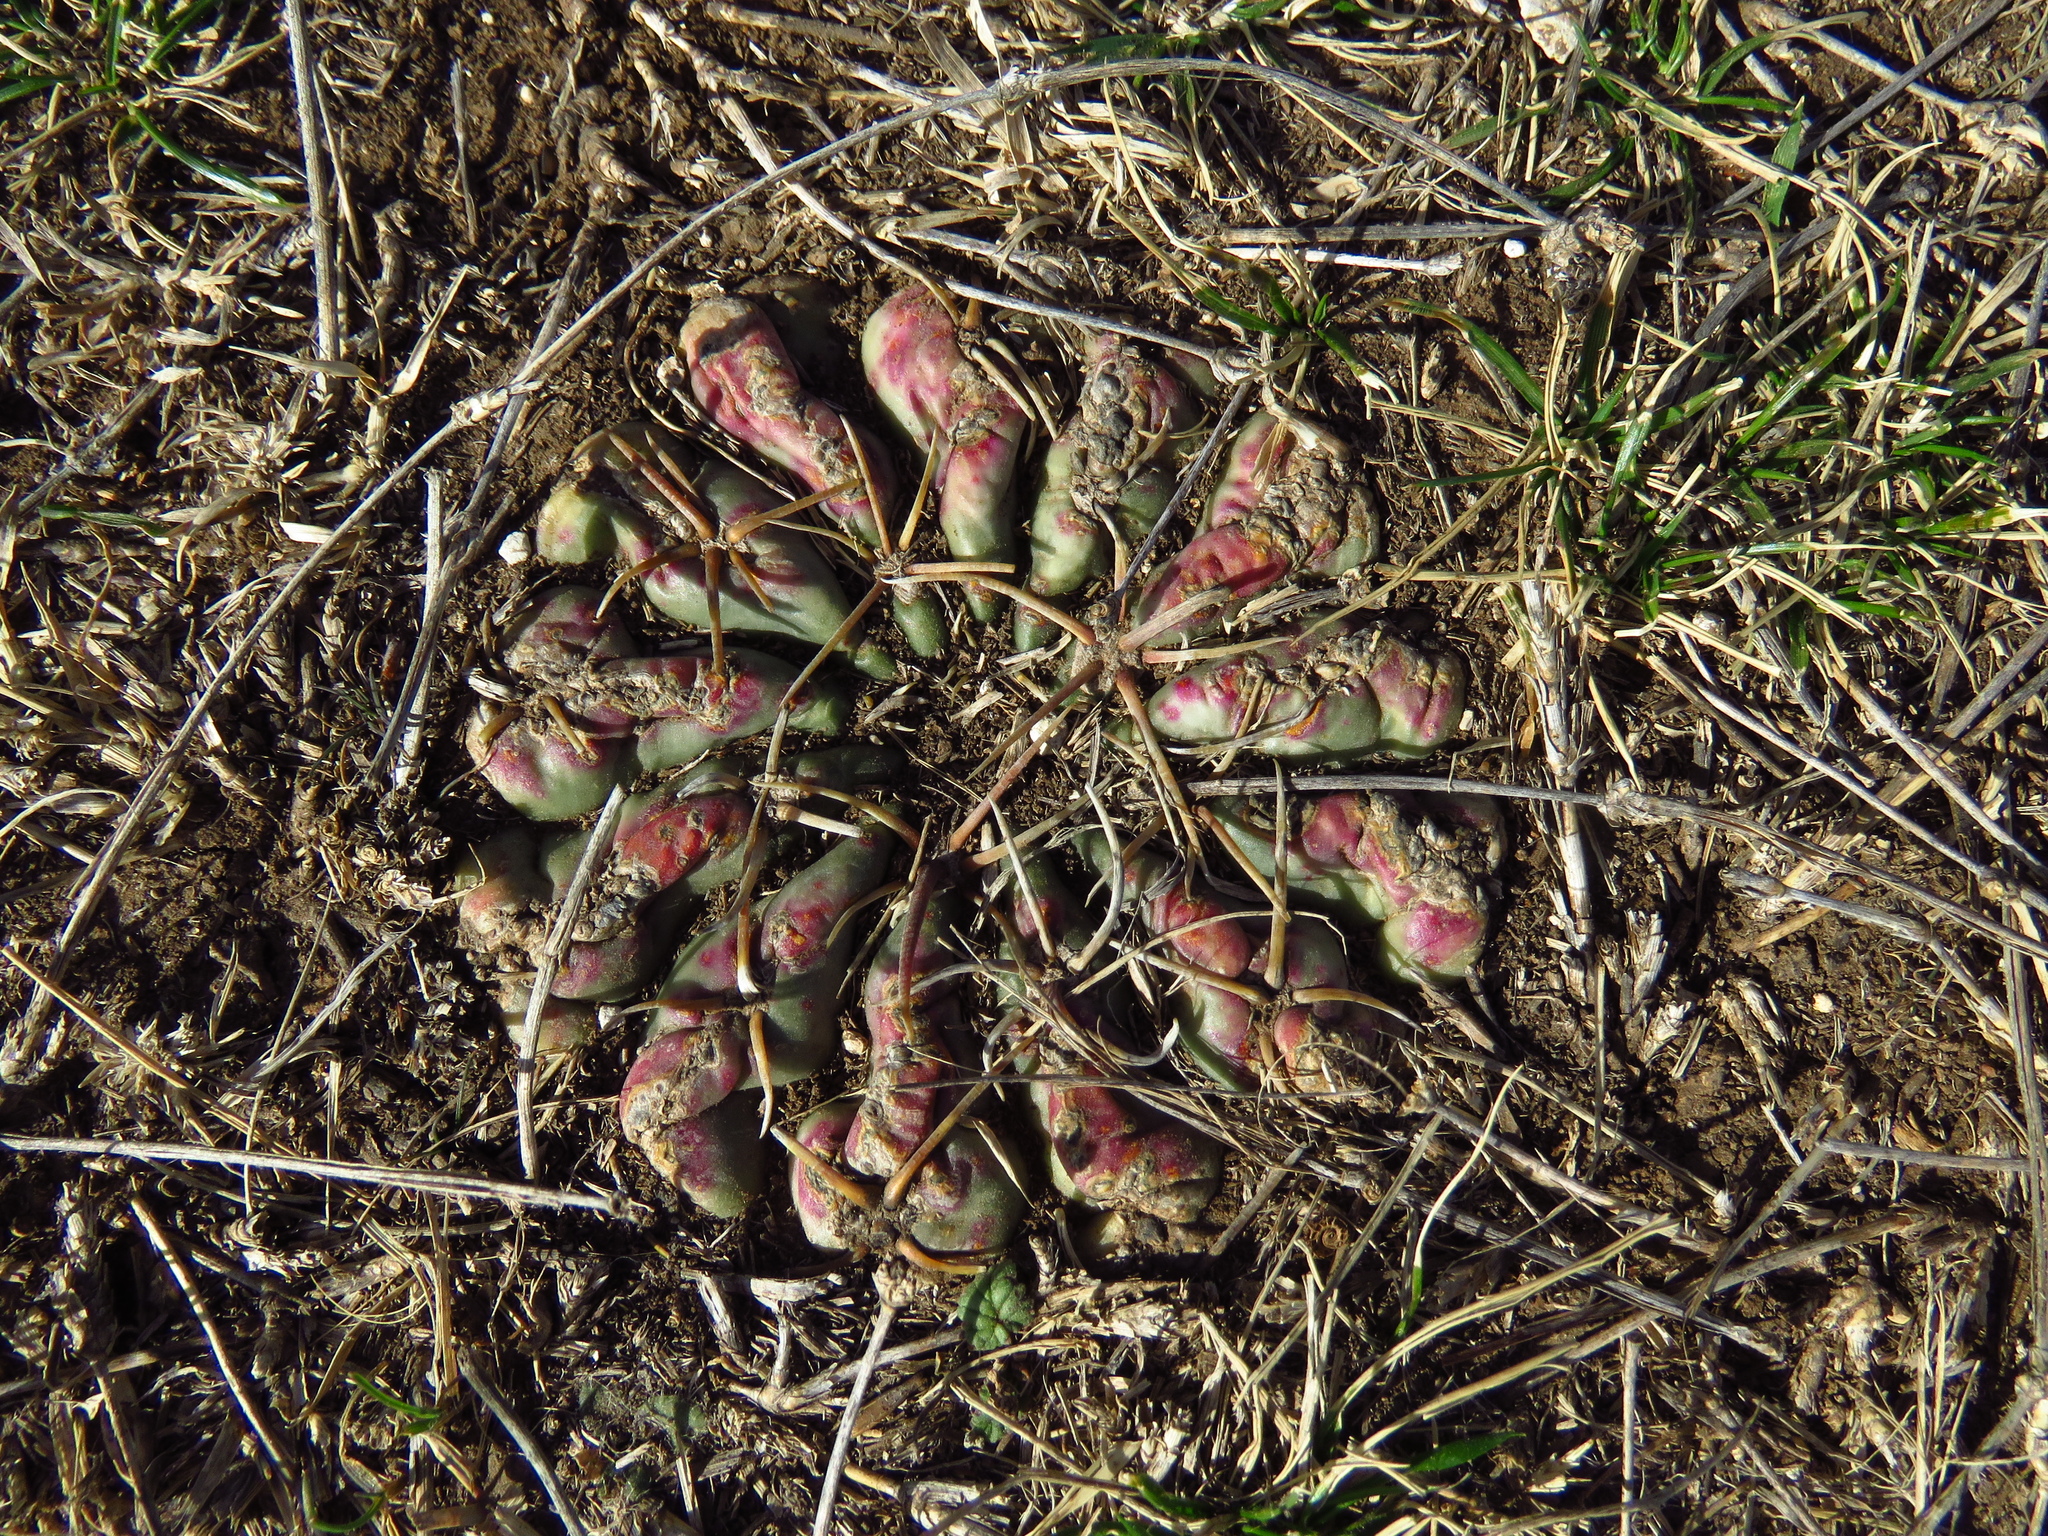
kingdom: Plantae
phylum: Tracheophyta
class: Magnoliopsida
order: Caryophyllales
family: Cactaceae
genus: Echinocactus
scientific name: Echinocactus texensis
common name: Devil's pincushion
